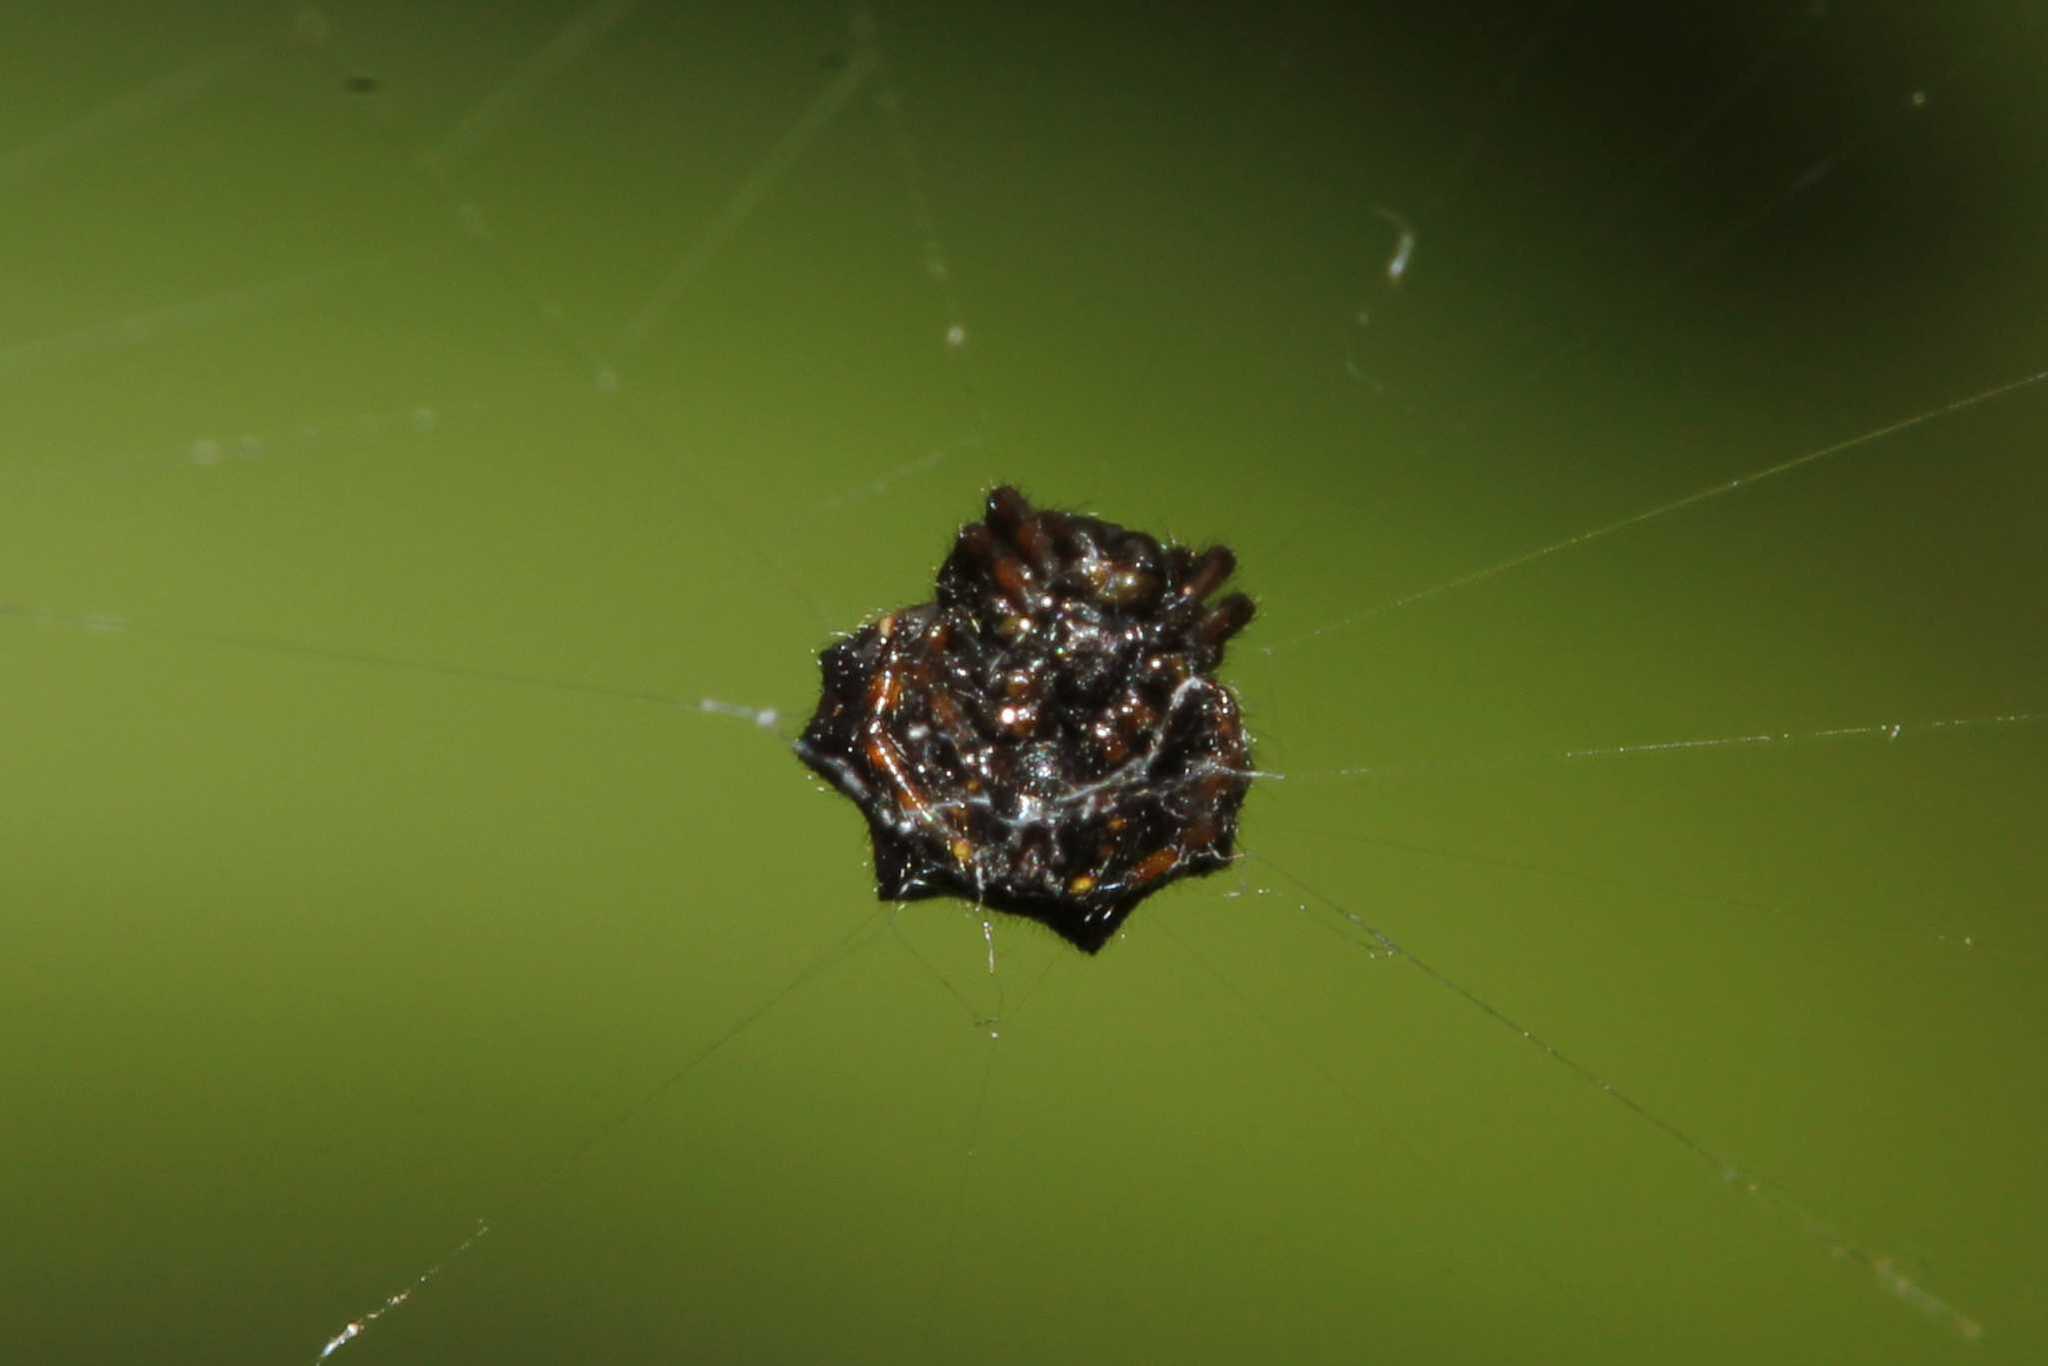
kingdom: Animalia
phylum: Arthropoda
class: Arachnida
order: Araneae
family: Araneidae
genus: Gasteracantha
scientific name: Gasteracantha cancriformis
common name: Orb weavers
